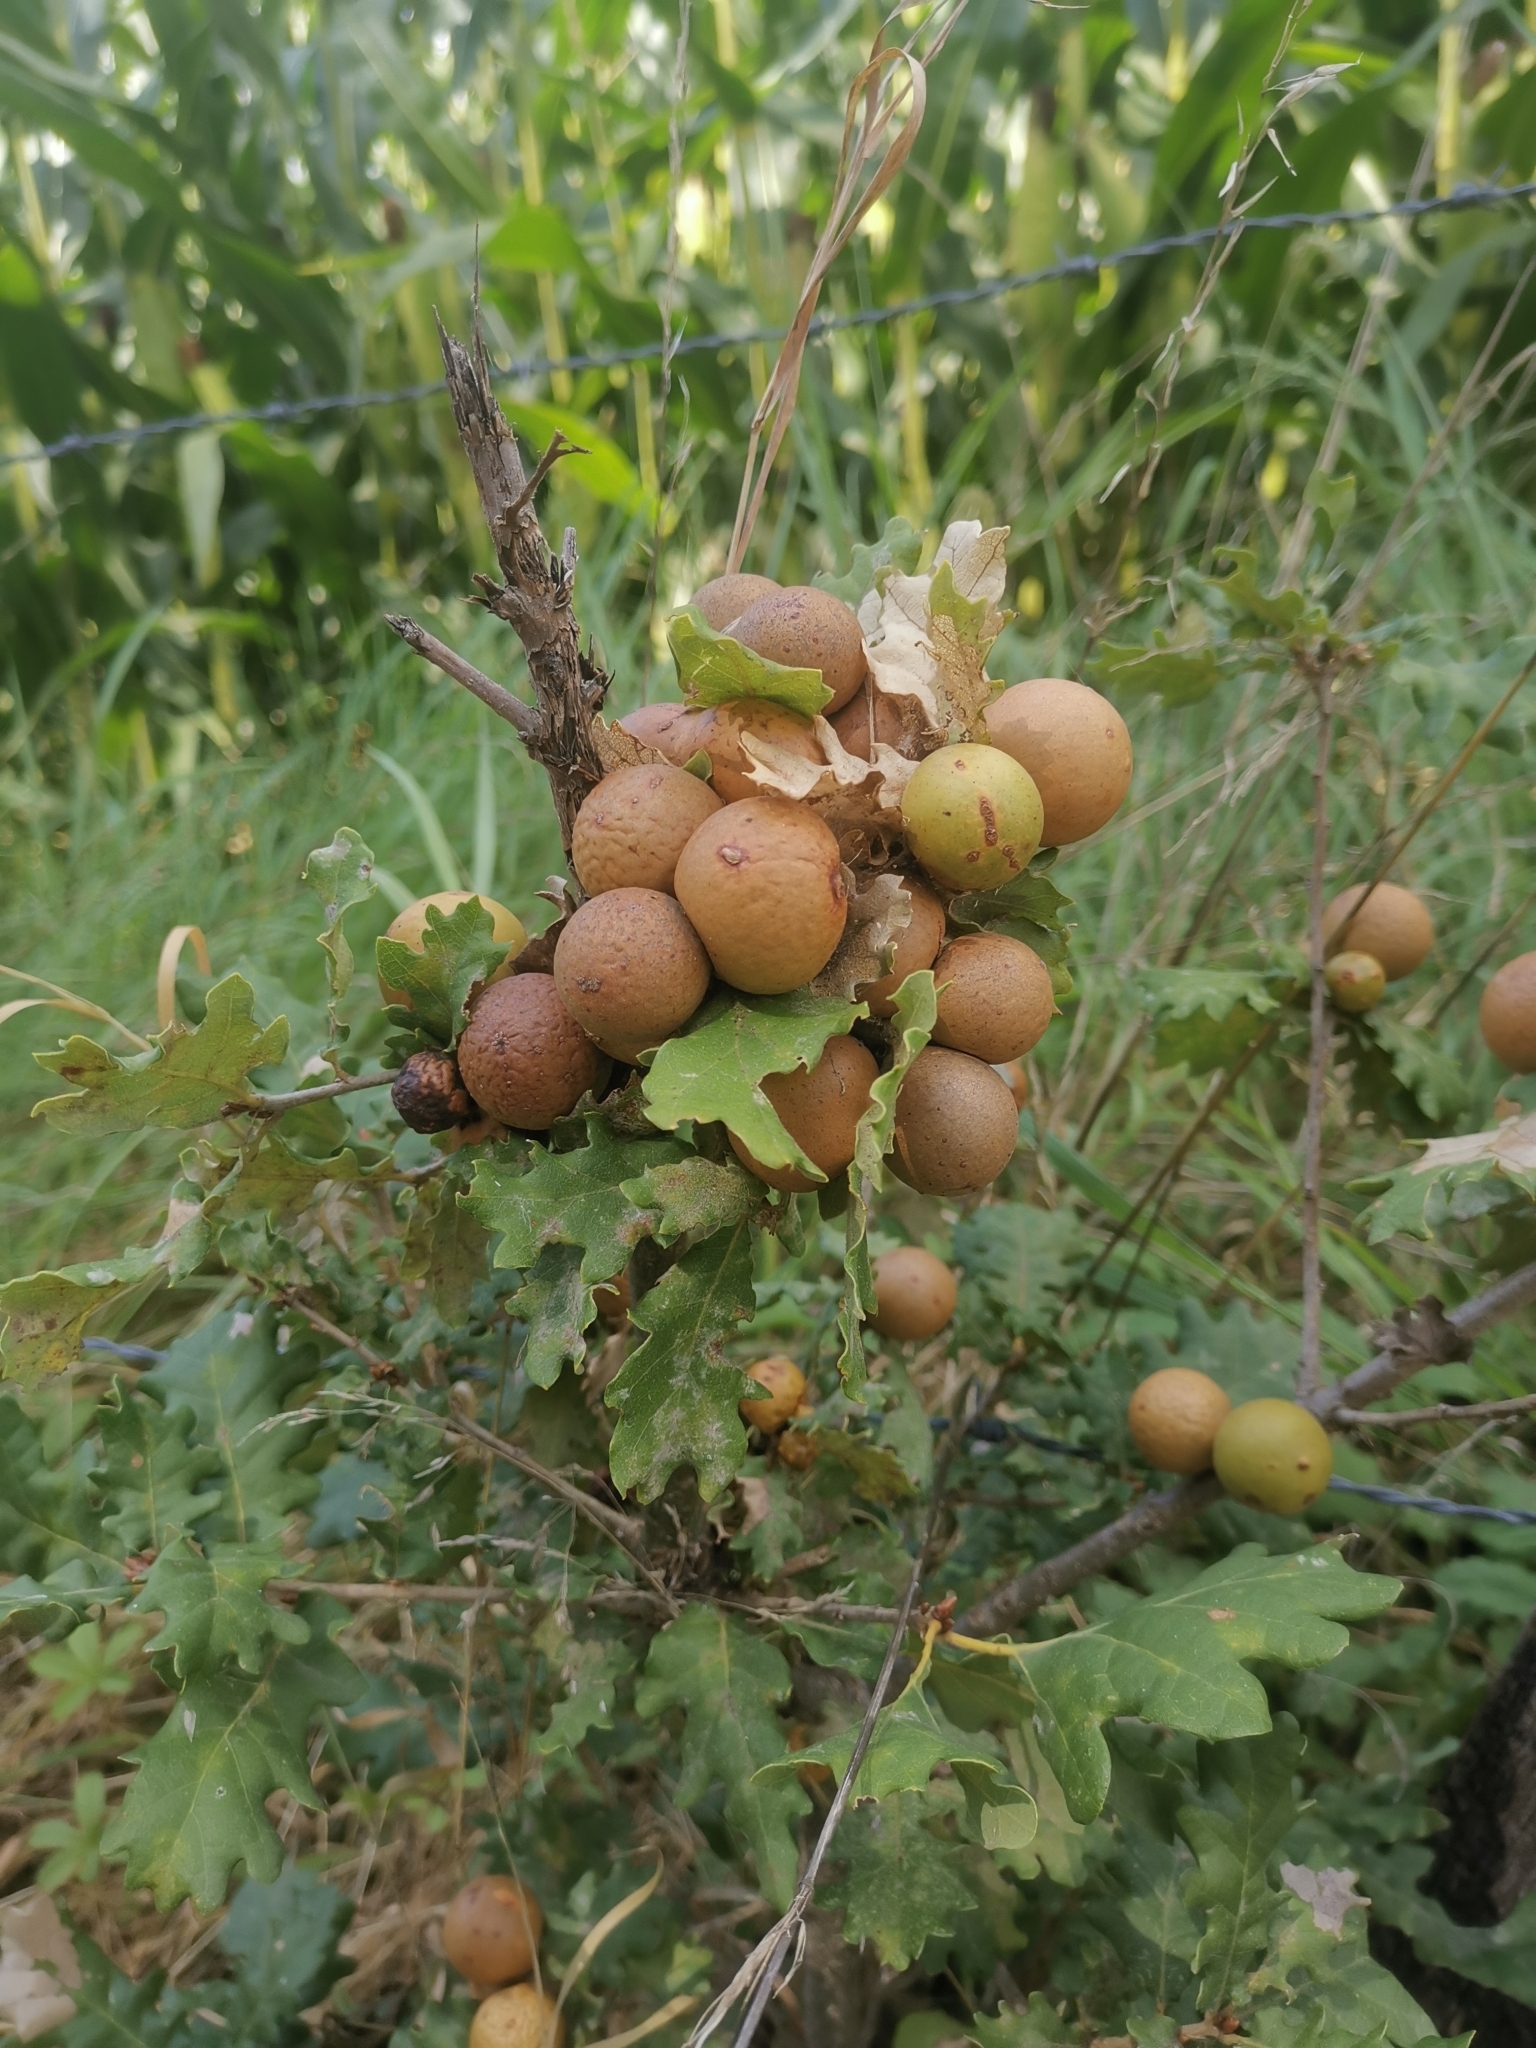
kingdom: Animalia
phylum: Arthropoda
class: Insecta
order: Hymenoptera
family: Cynipidae
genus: Andricus
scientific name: Andricus kollari
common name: Marble gall
